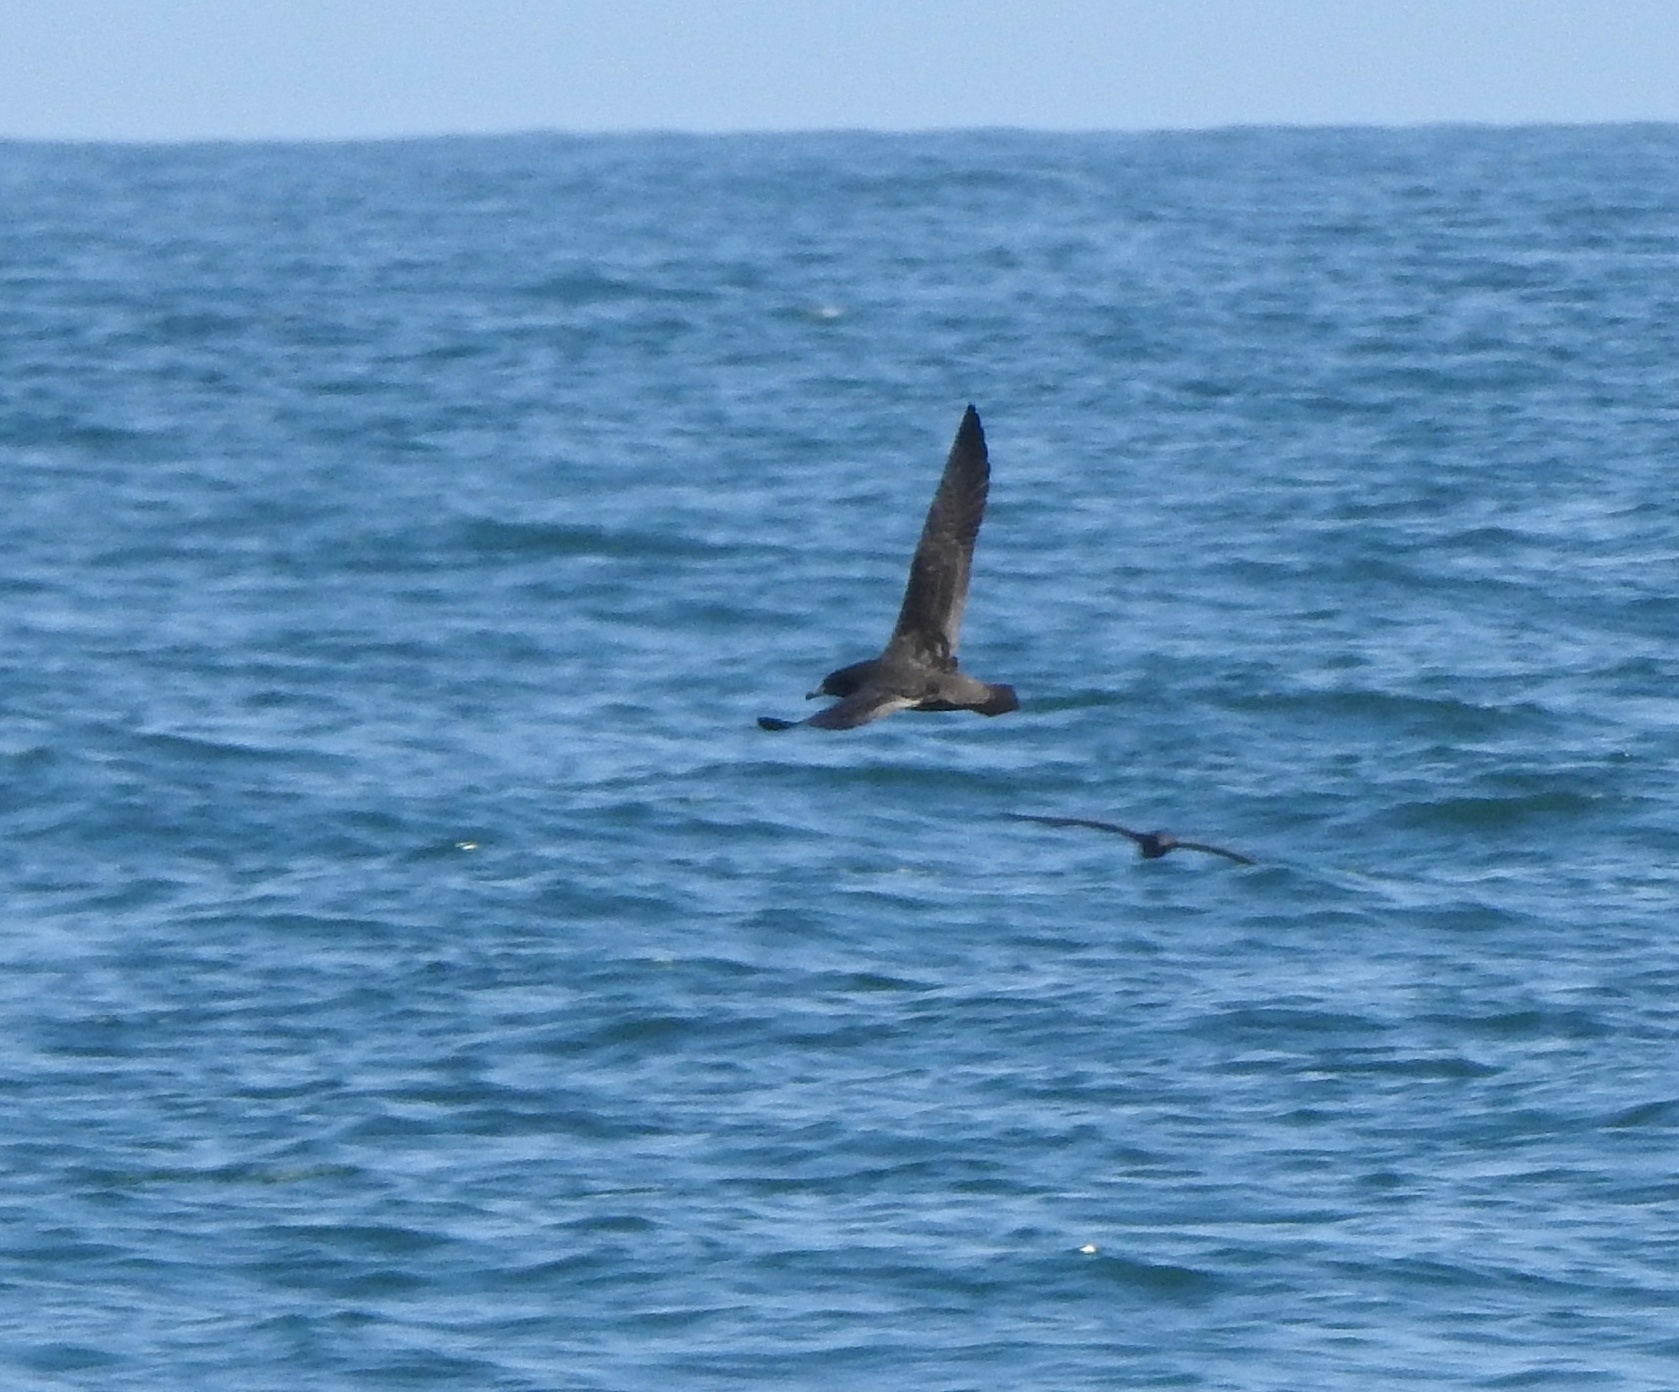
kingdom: Animalia
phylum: Chordata
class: Aves
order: Procellariiformes
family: Procellariidae
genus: Puffinus
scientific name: Puffinus carneipes
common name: Flesh-footed shearwater
